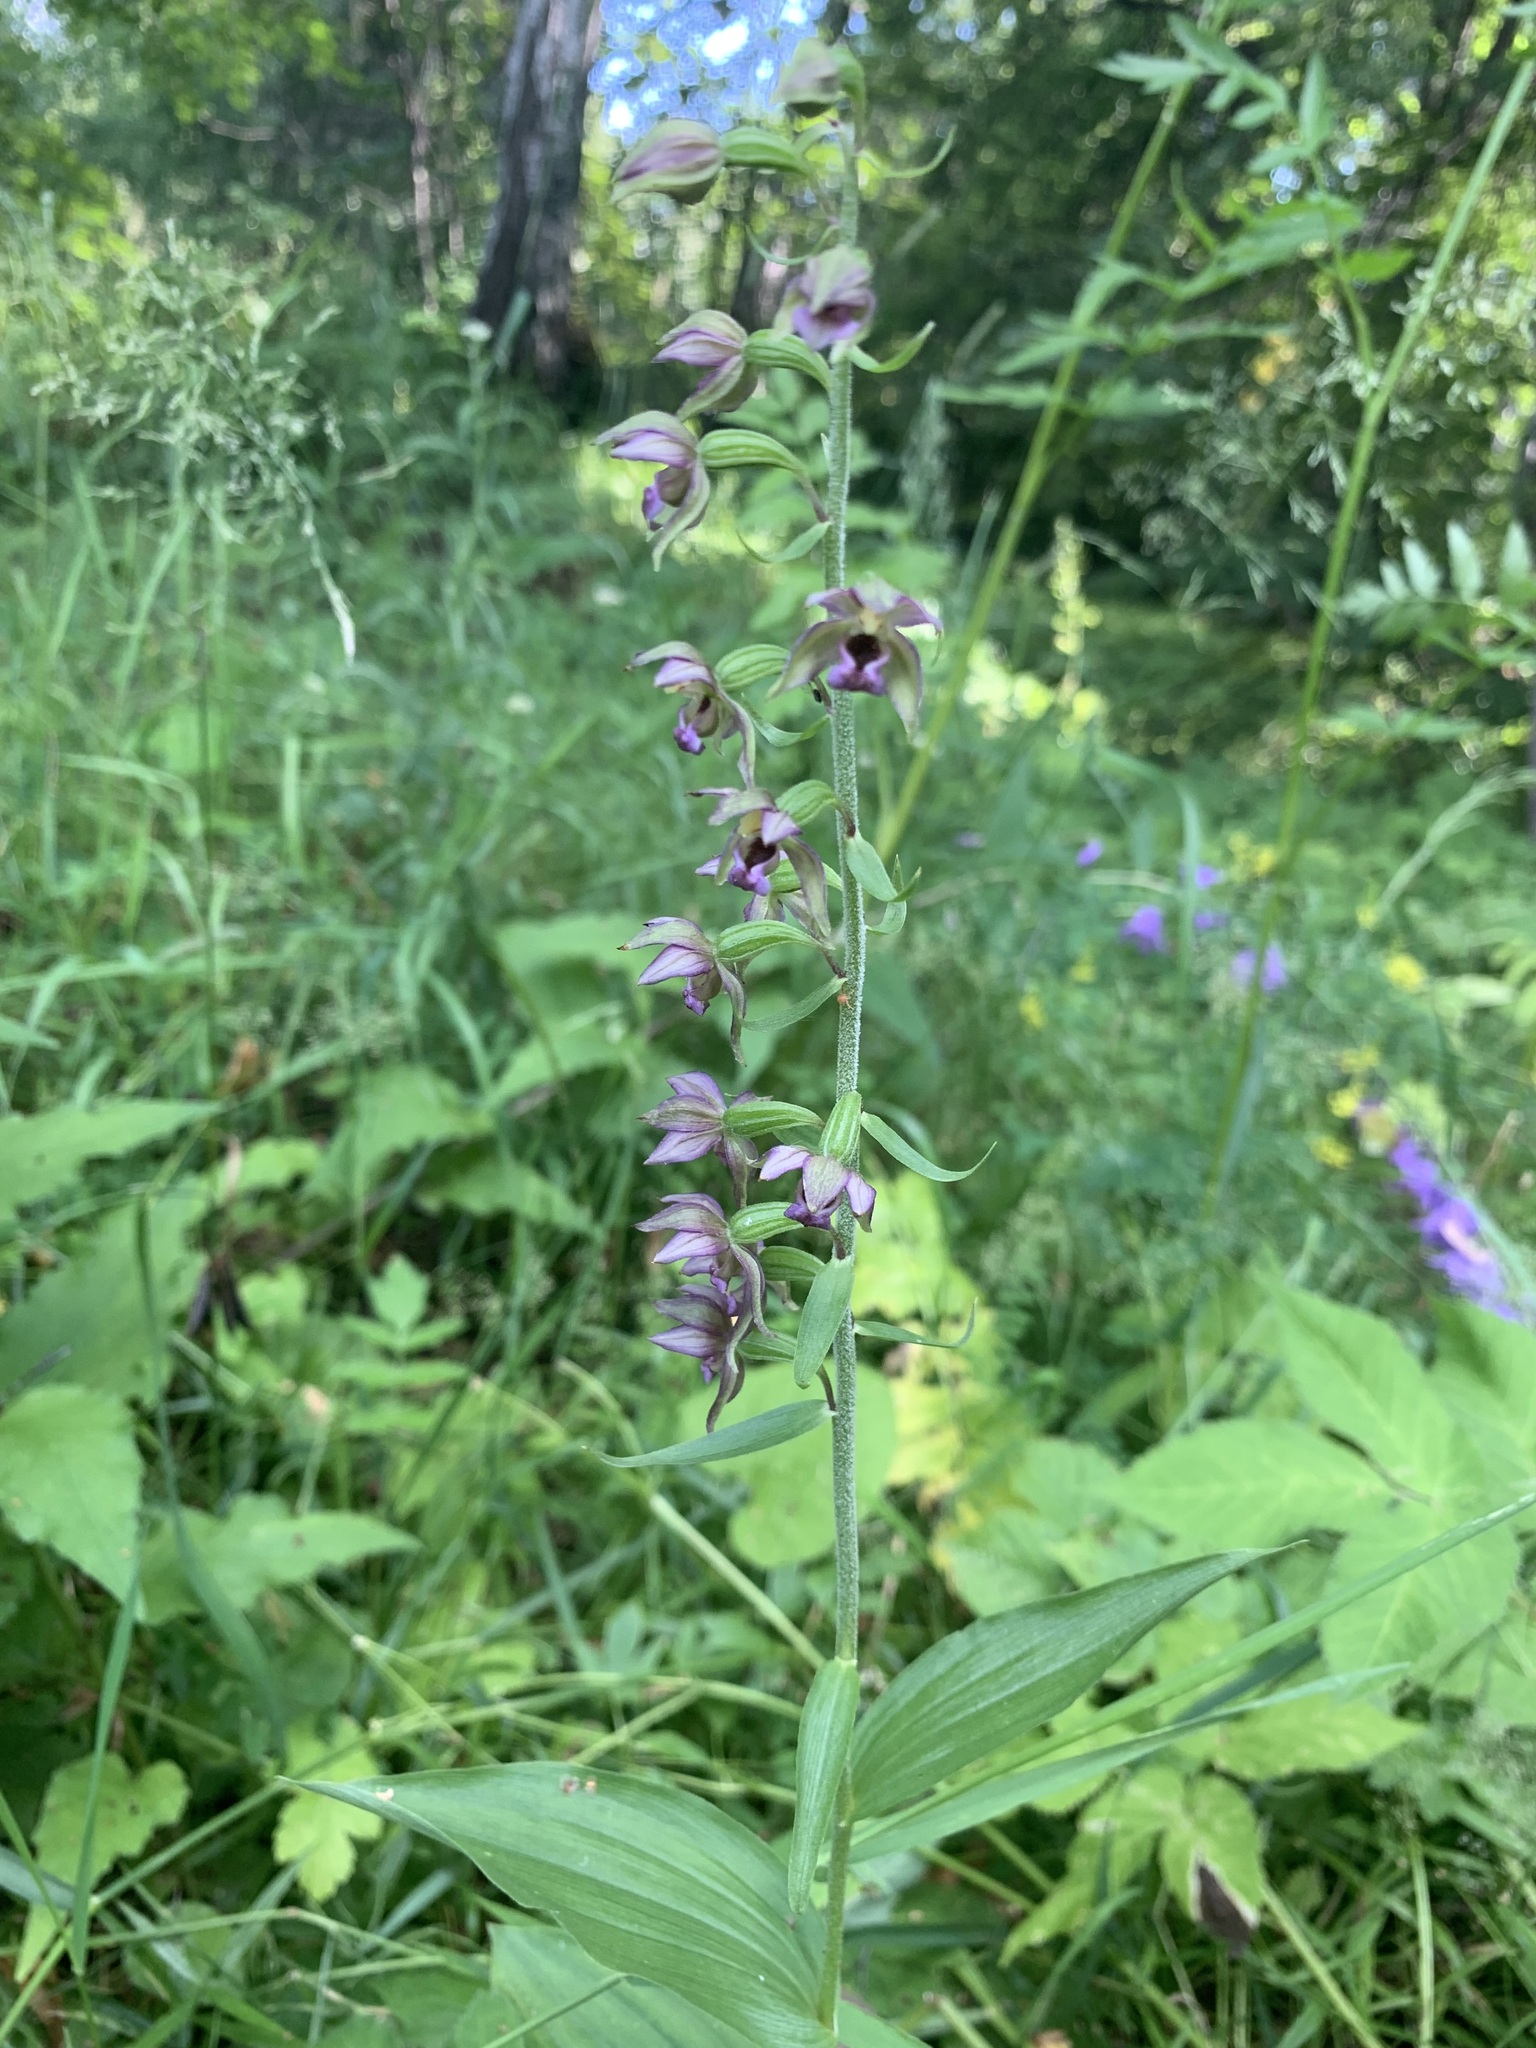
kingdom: Plantae
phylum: Tracheophyta
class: Liliopsida
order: Asparagales
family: Orchidaceae
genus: Epipactis
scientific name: Epipactis helleborine
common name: Broad-leaved helleborine
